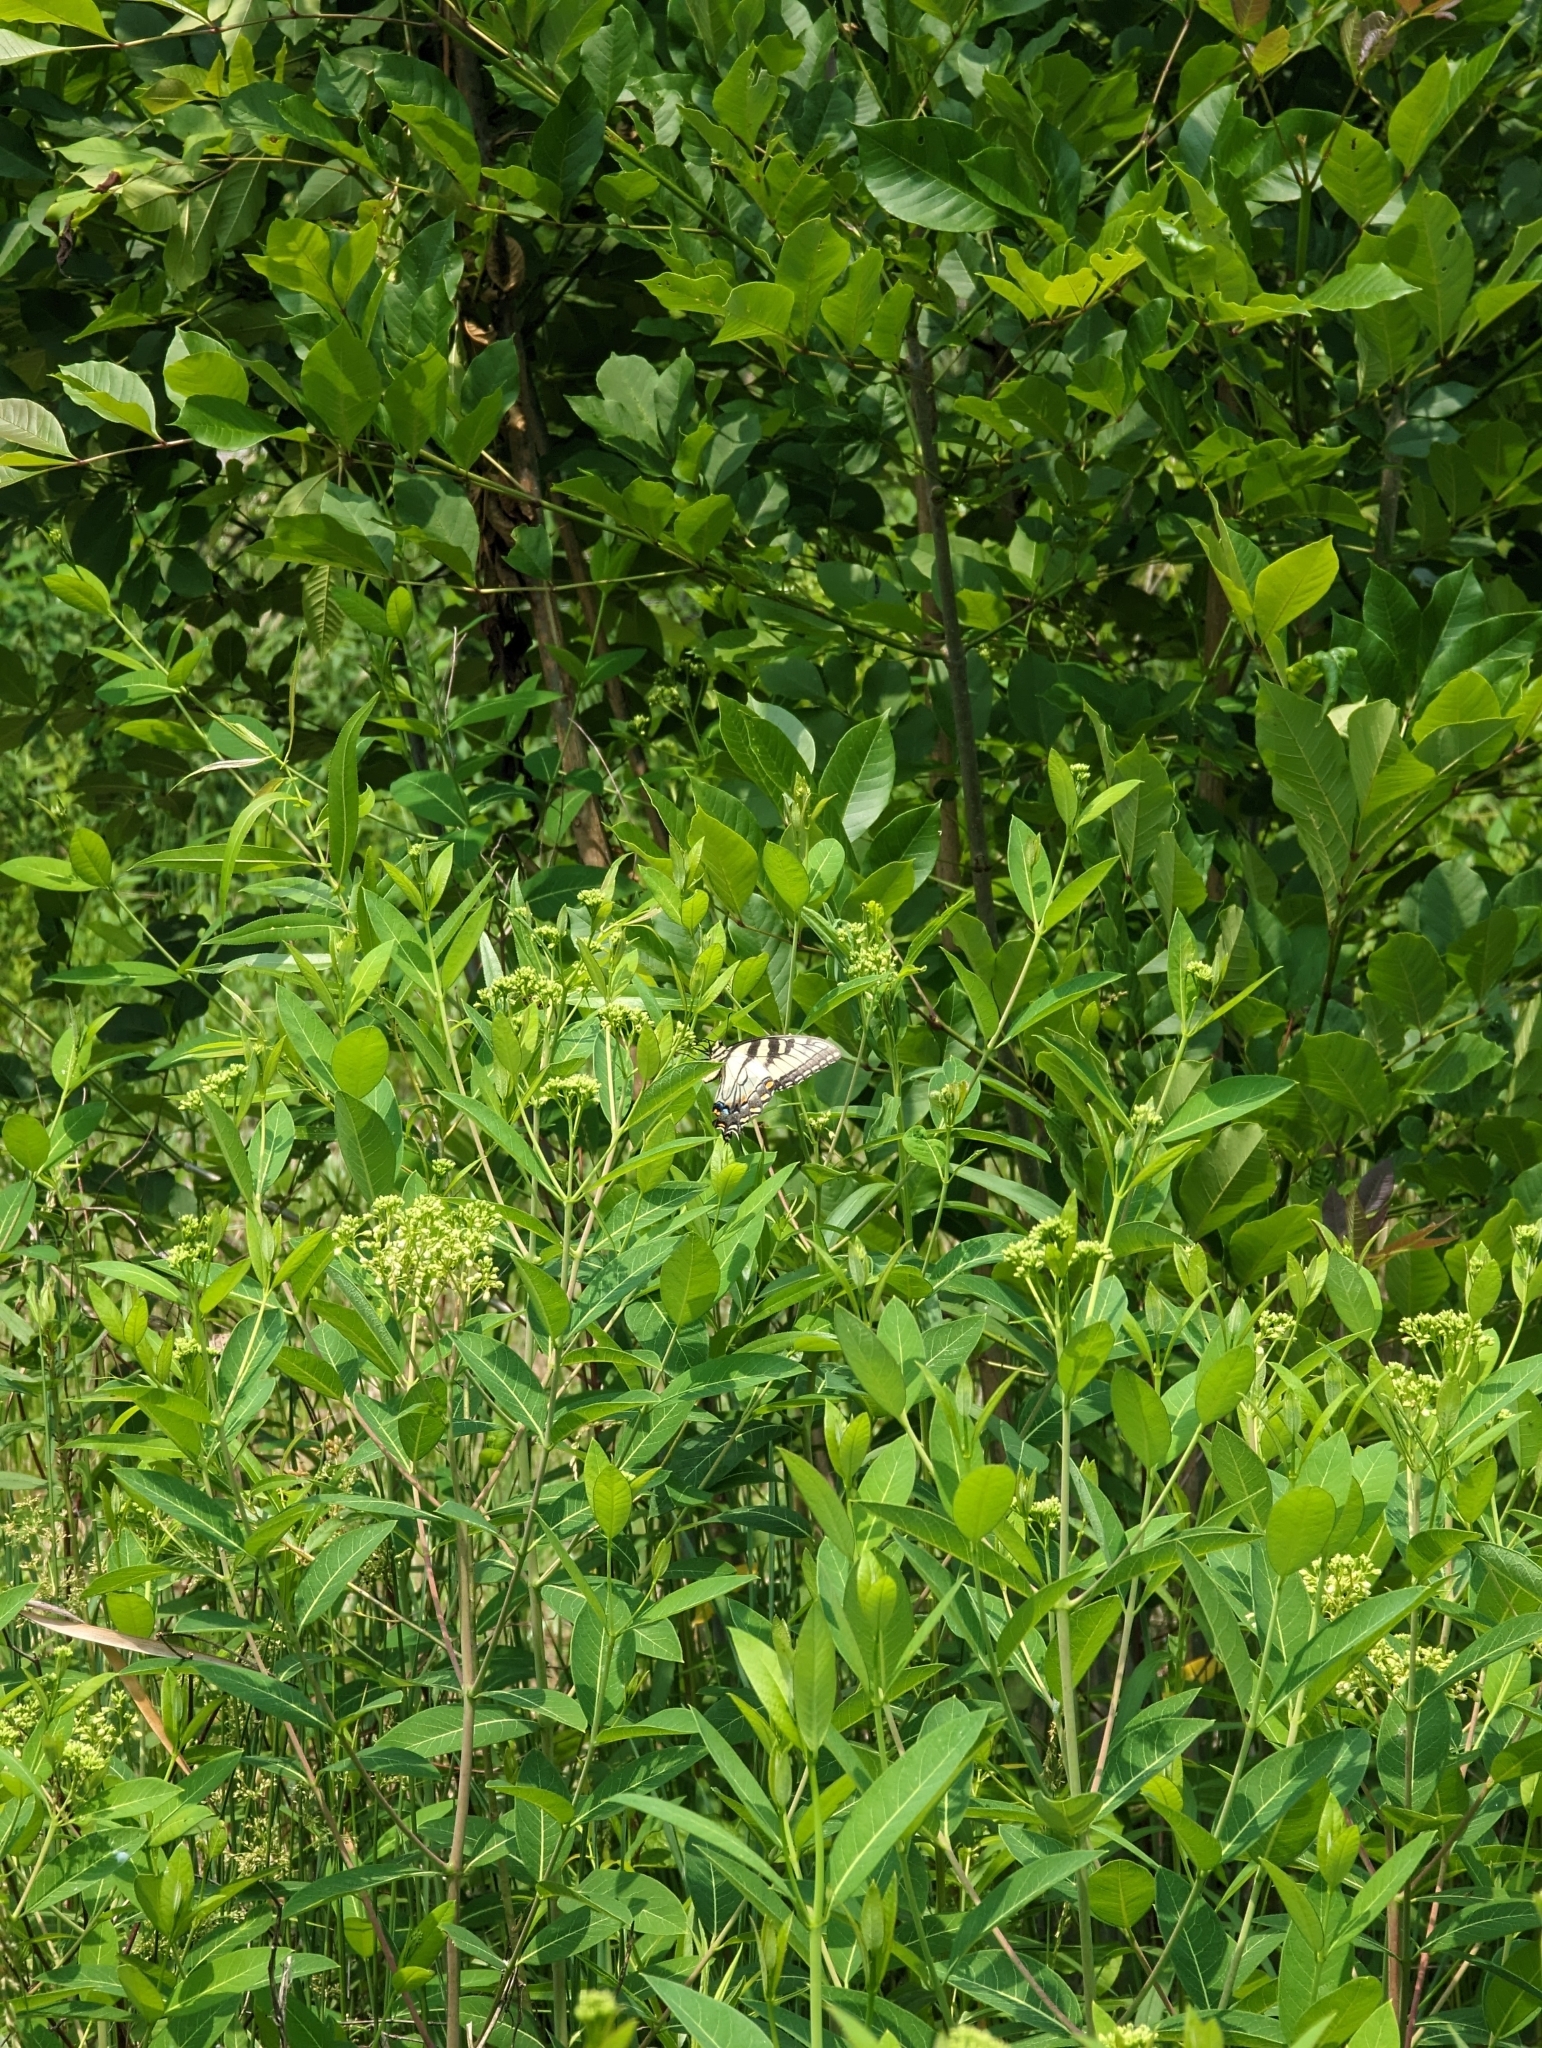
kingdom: Animalia
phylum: Arthropoda
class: Insecta
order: Lepidoptera
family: Papilionidae
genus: Papilio
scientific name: Papilio glaucus
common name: Tiger swallowtail
